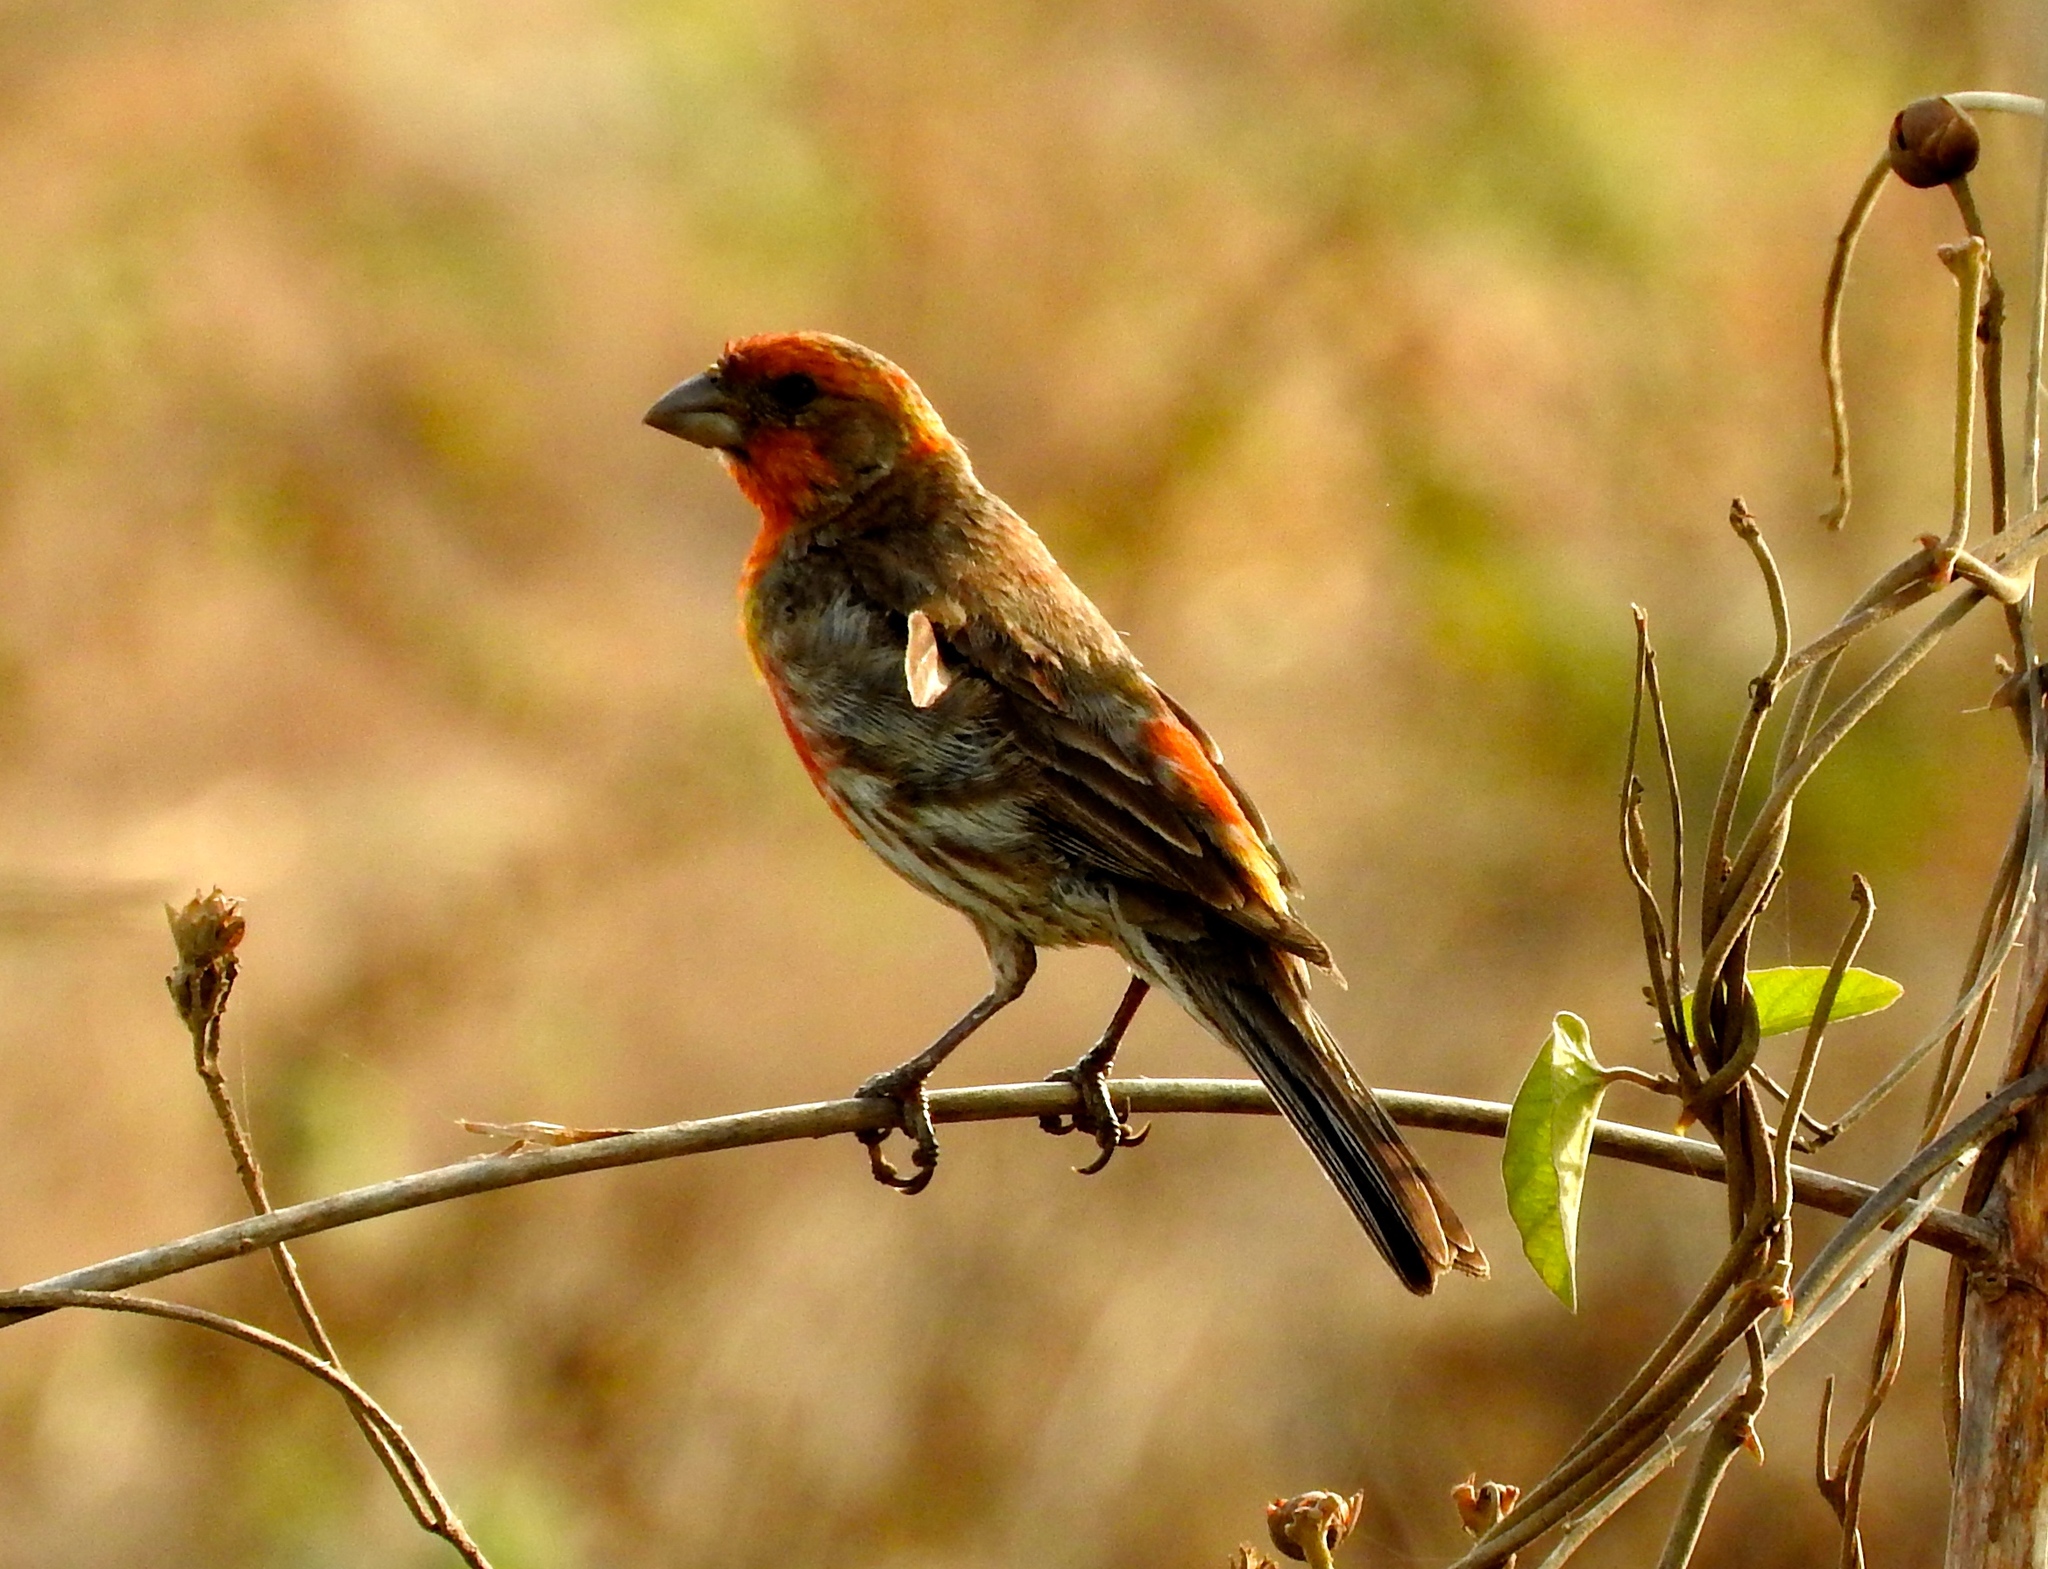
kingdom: Animalia
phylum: Chordata
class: Aves
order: Passeriformes
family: Fringillidae
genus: Haemorhous
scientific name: Haemorhous mexicanus
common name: House finch
